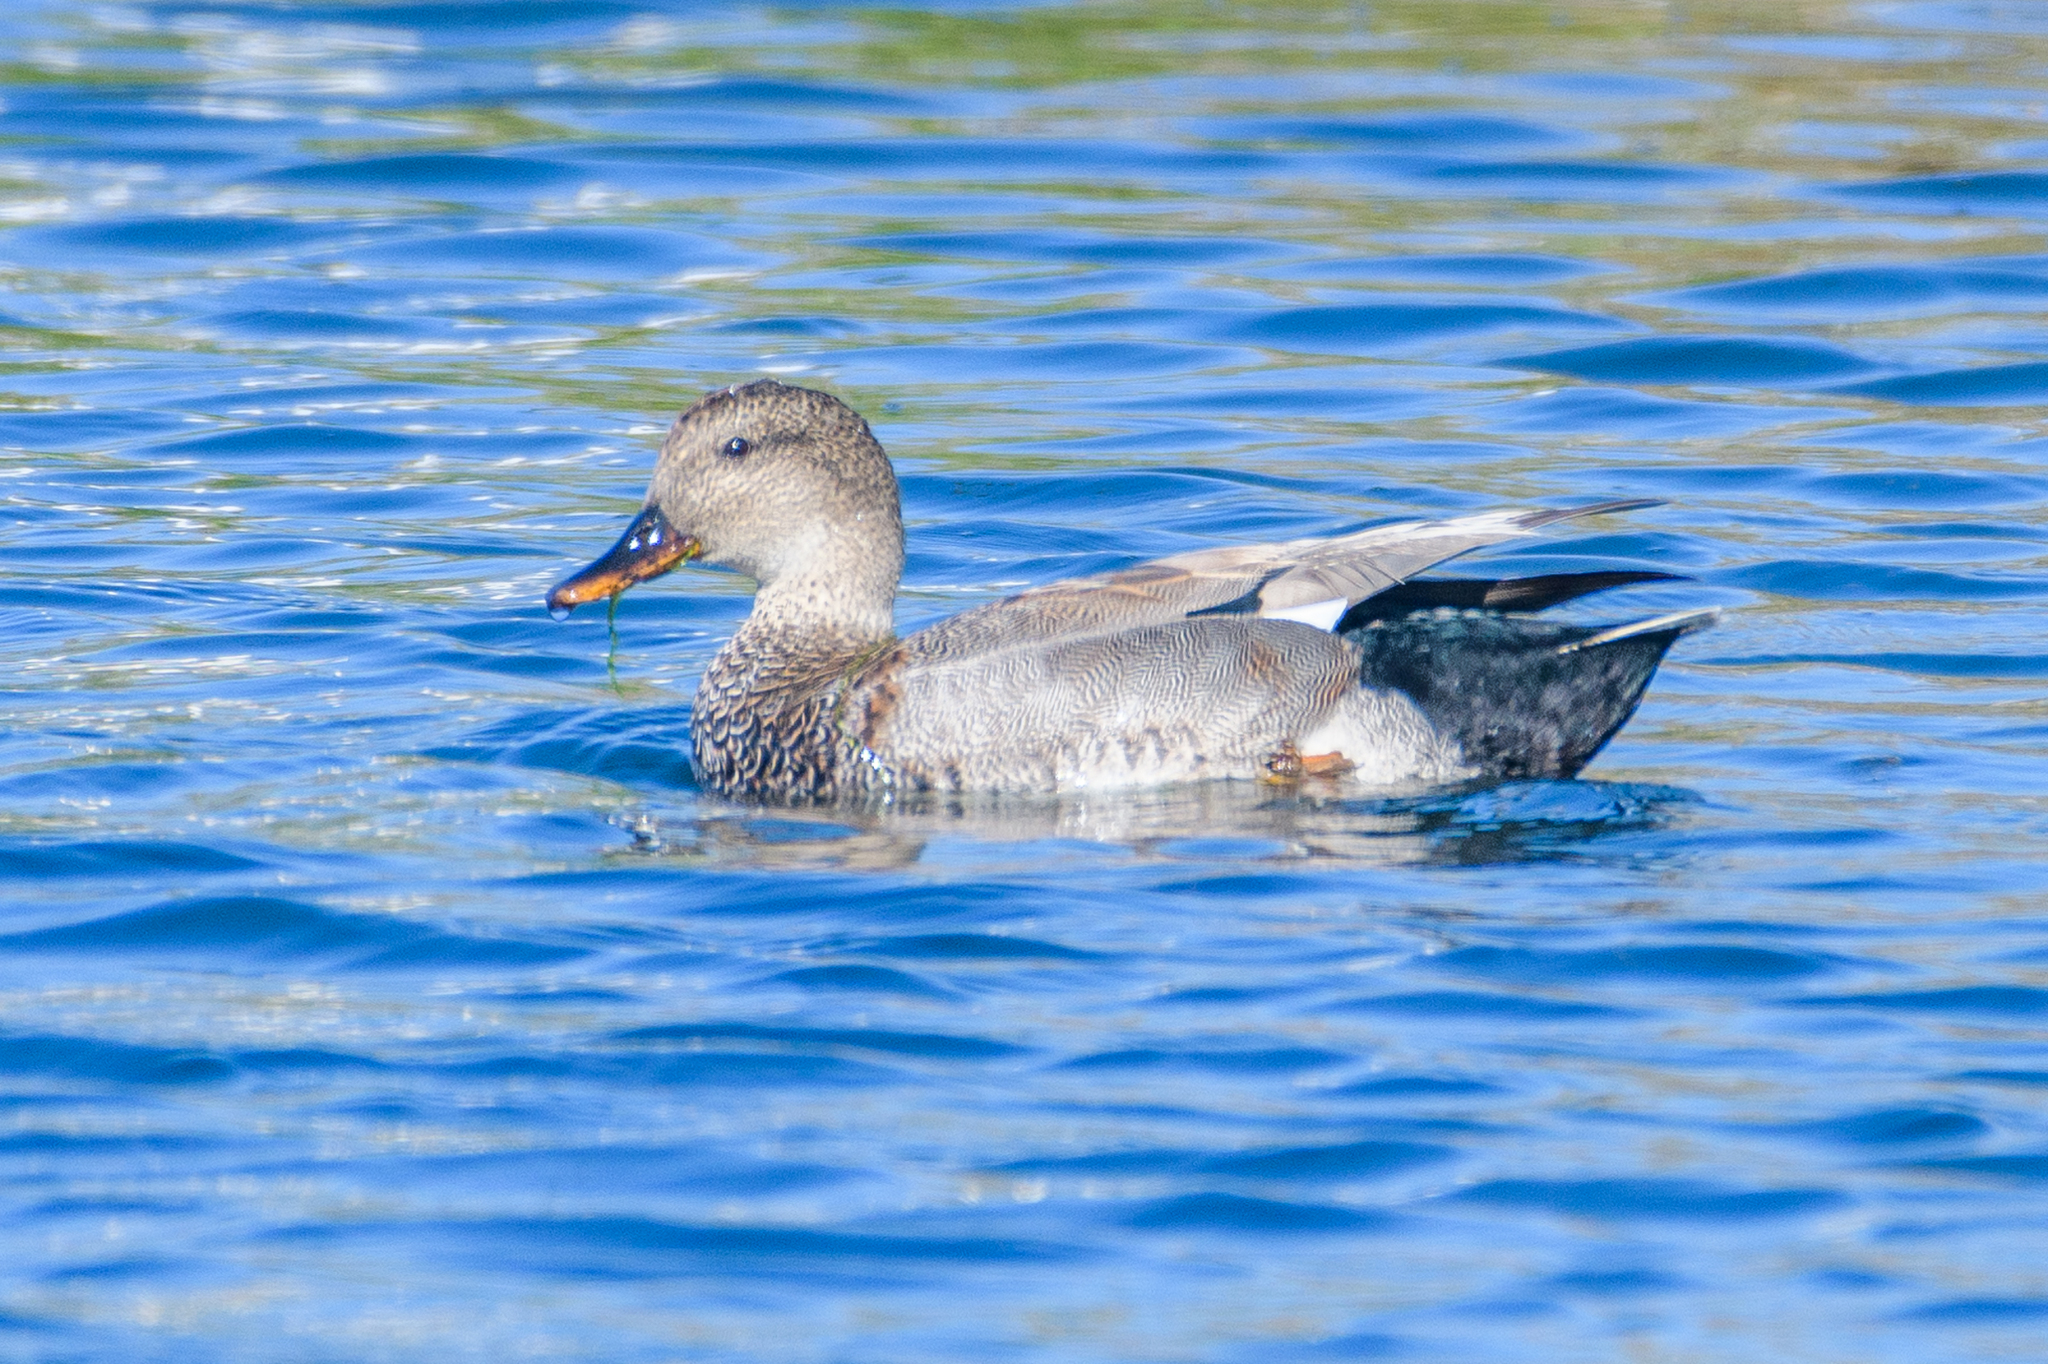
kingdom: Animalia
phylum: Chordata
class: Aves
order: Anseriformes
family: Anatidae
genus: Mareca
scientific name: Mareca strepera
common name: Gadwall
